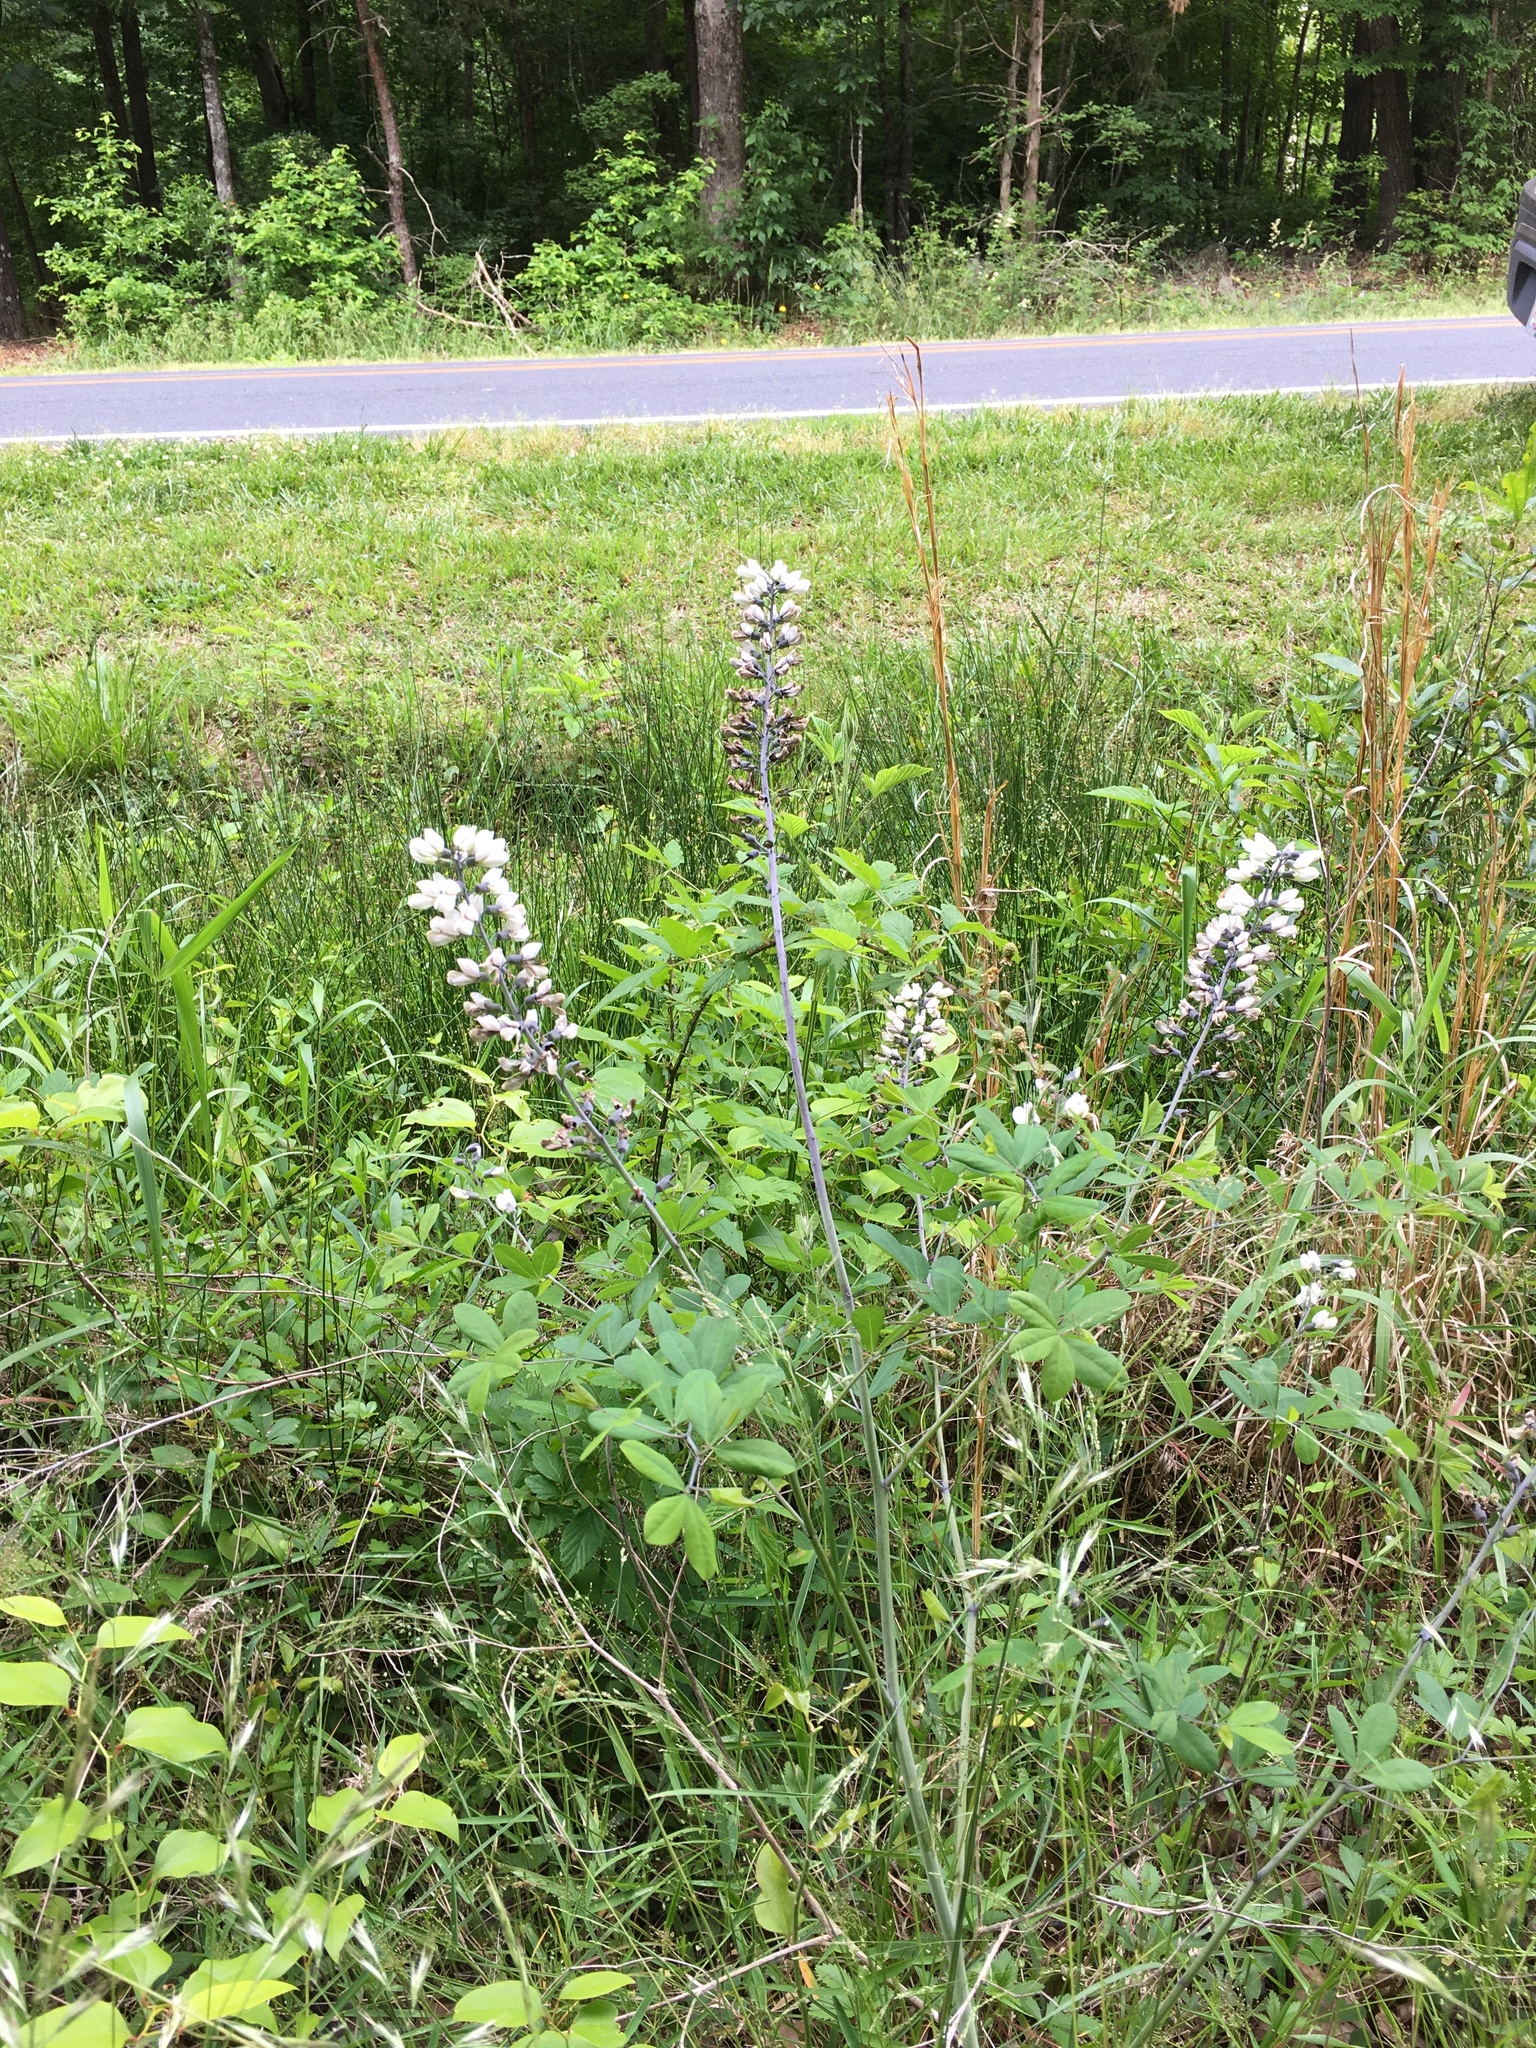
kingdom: Plantae
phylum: Tracheophyta
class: Magnoliopsida
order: Fabales
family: Fabaceae
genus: Baptisia
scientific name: Baptisia alba
